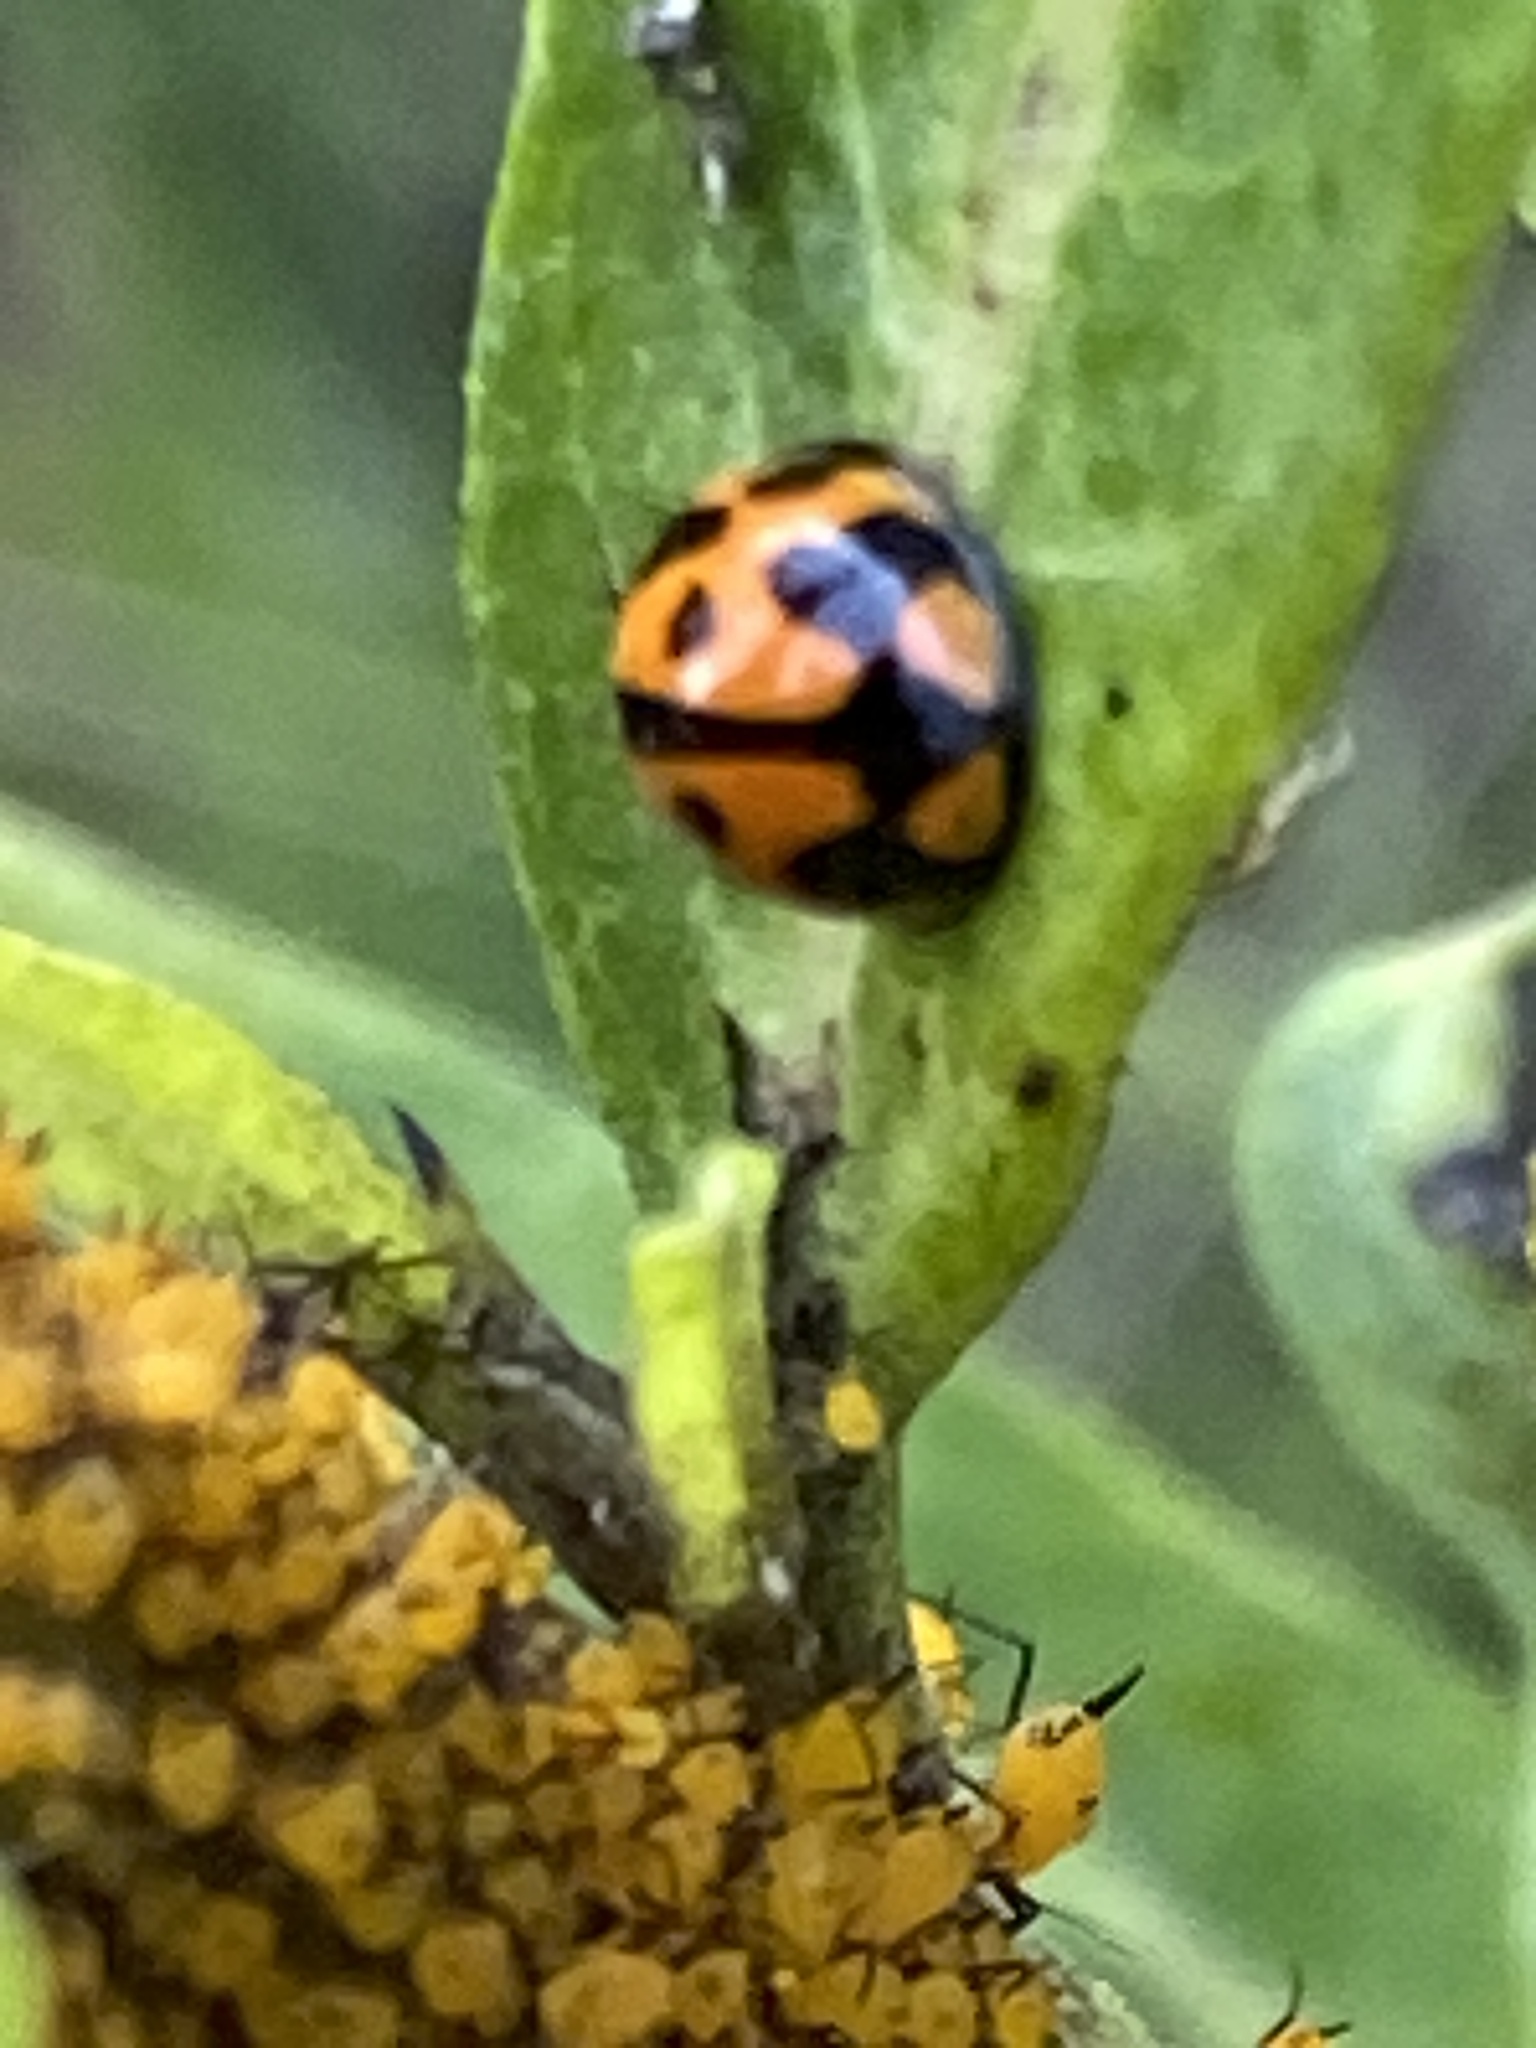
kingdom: Animalia
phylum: Arthropoda
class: Insecta
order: Coleoptera
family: Coccinellidae
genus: Coelophora
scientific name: Coelophora inaequalis
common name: Common australian lady beetle
